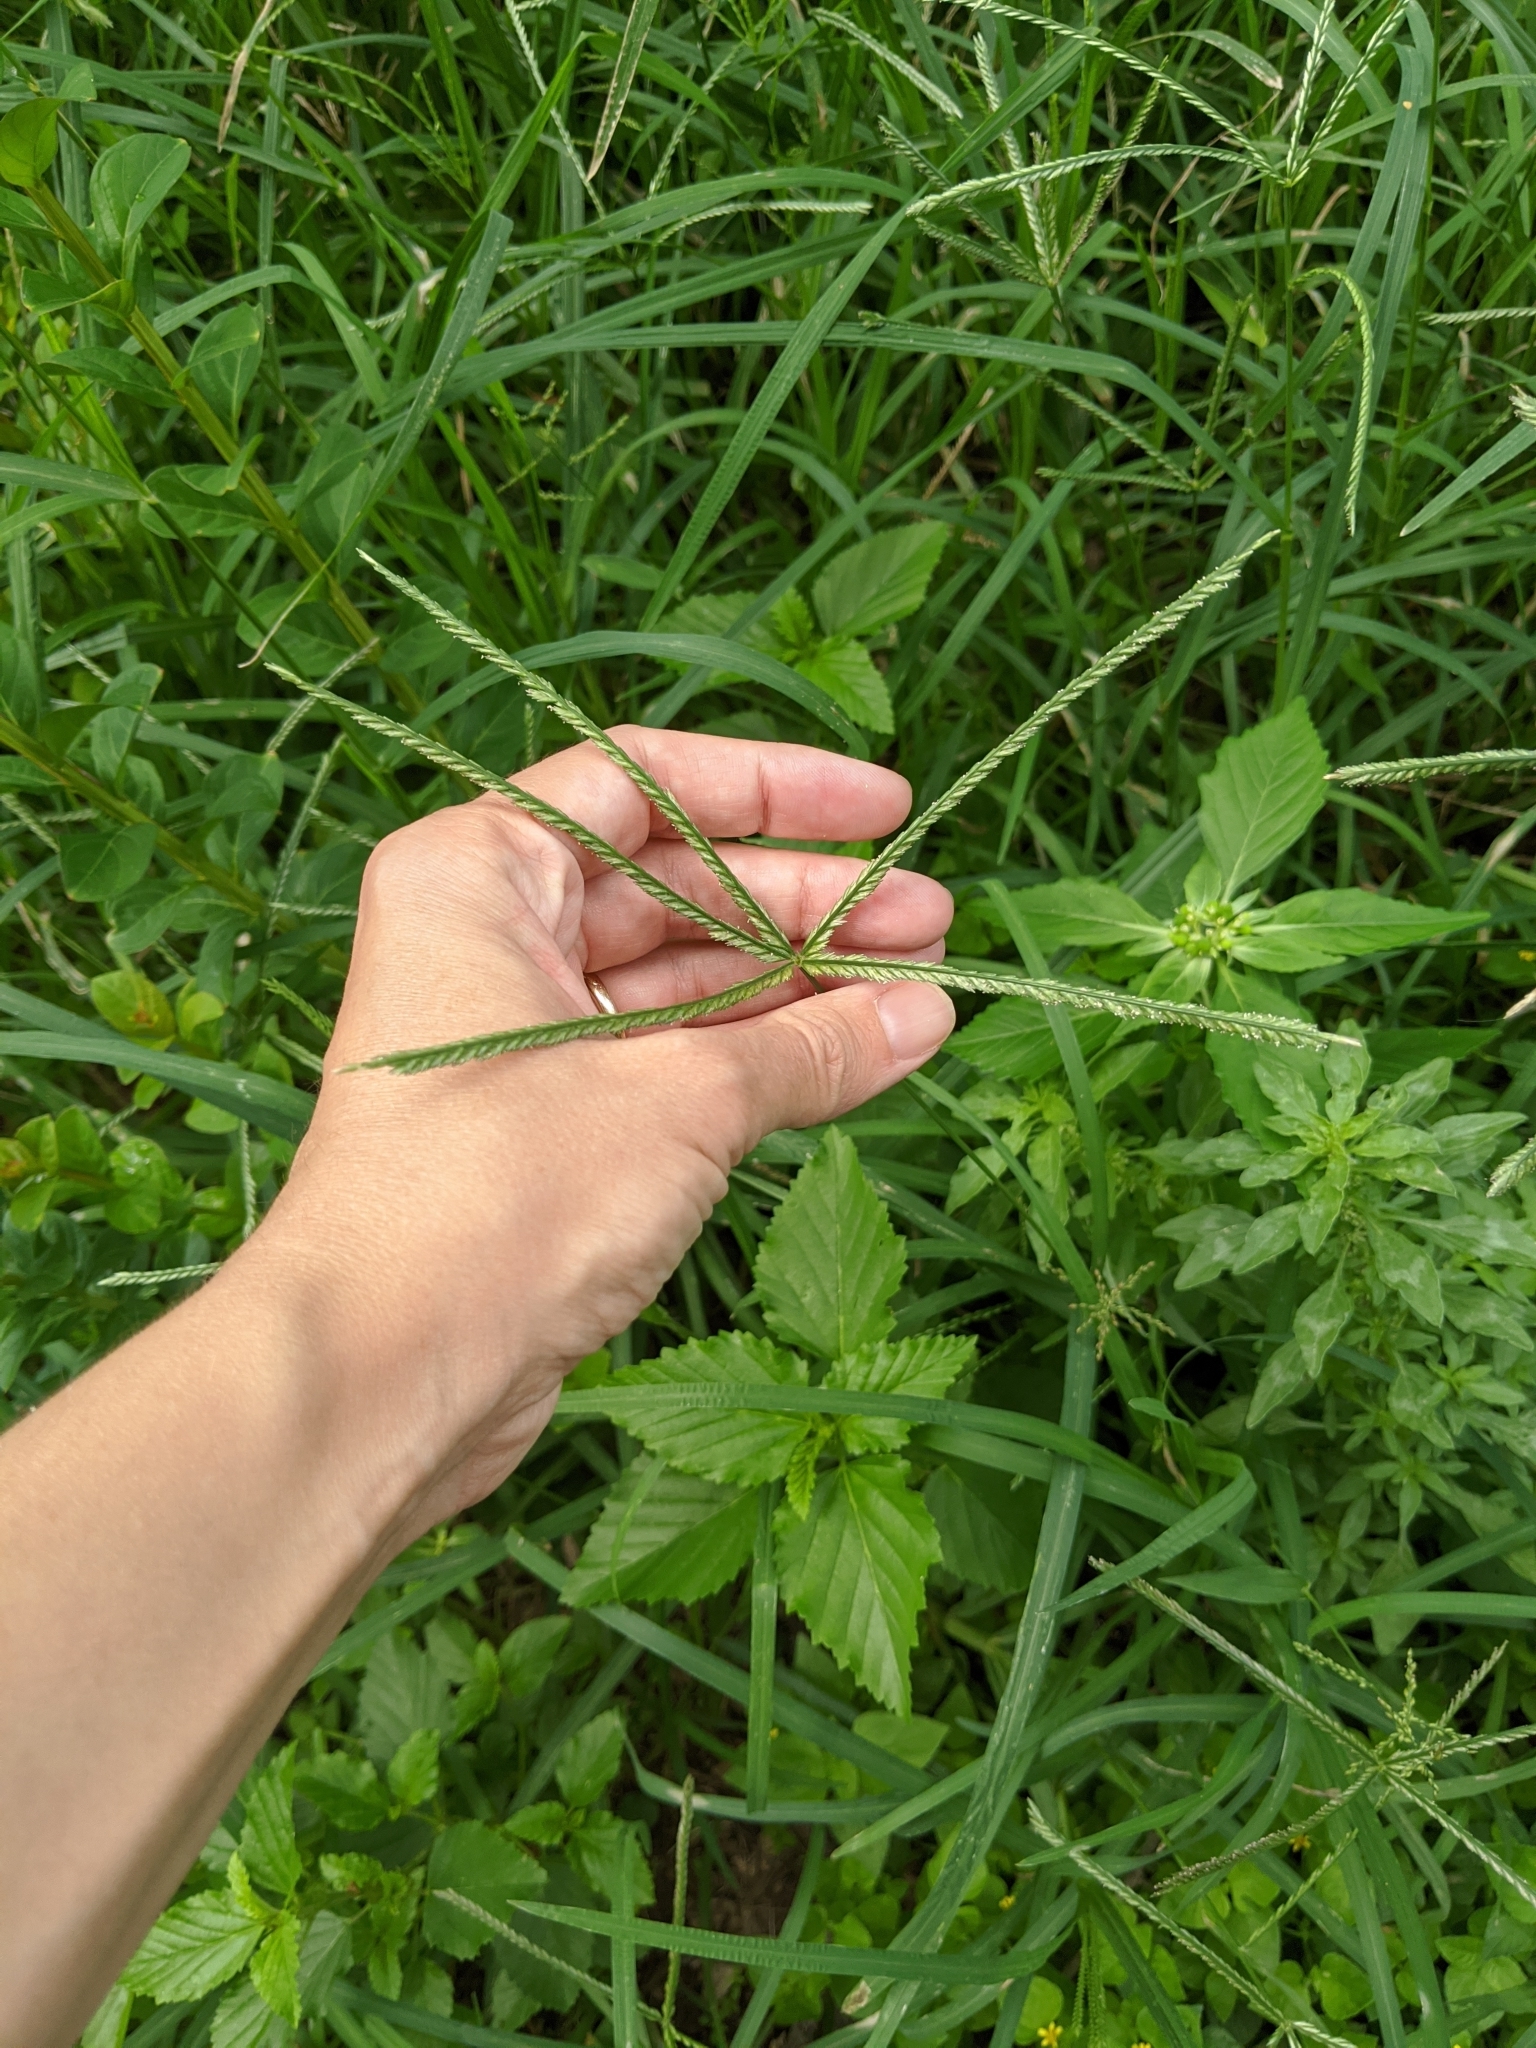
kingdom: Plantae
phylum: Tracheophyta
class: Liliopsida
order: Poales
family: Poaceae
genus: Eleusine
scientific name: Eleusine indica
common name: Yard-grass
